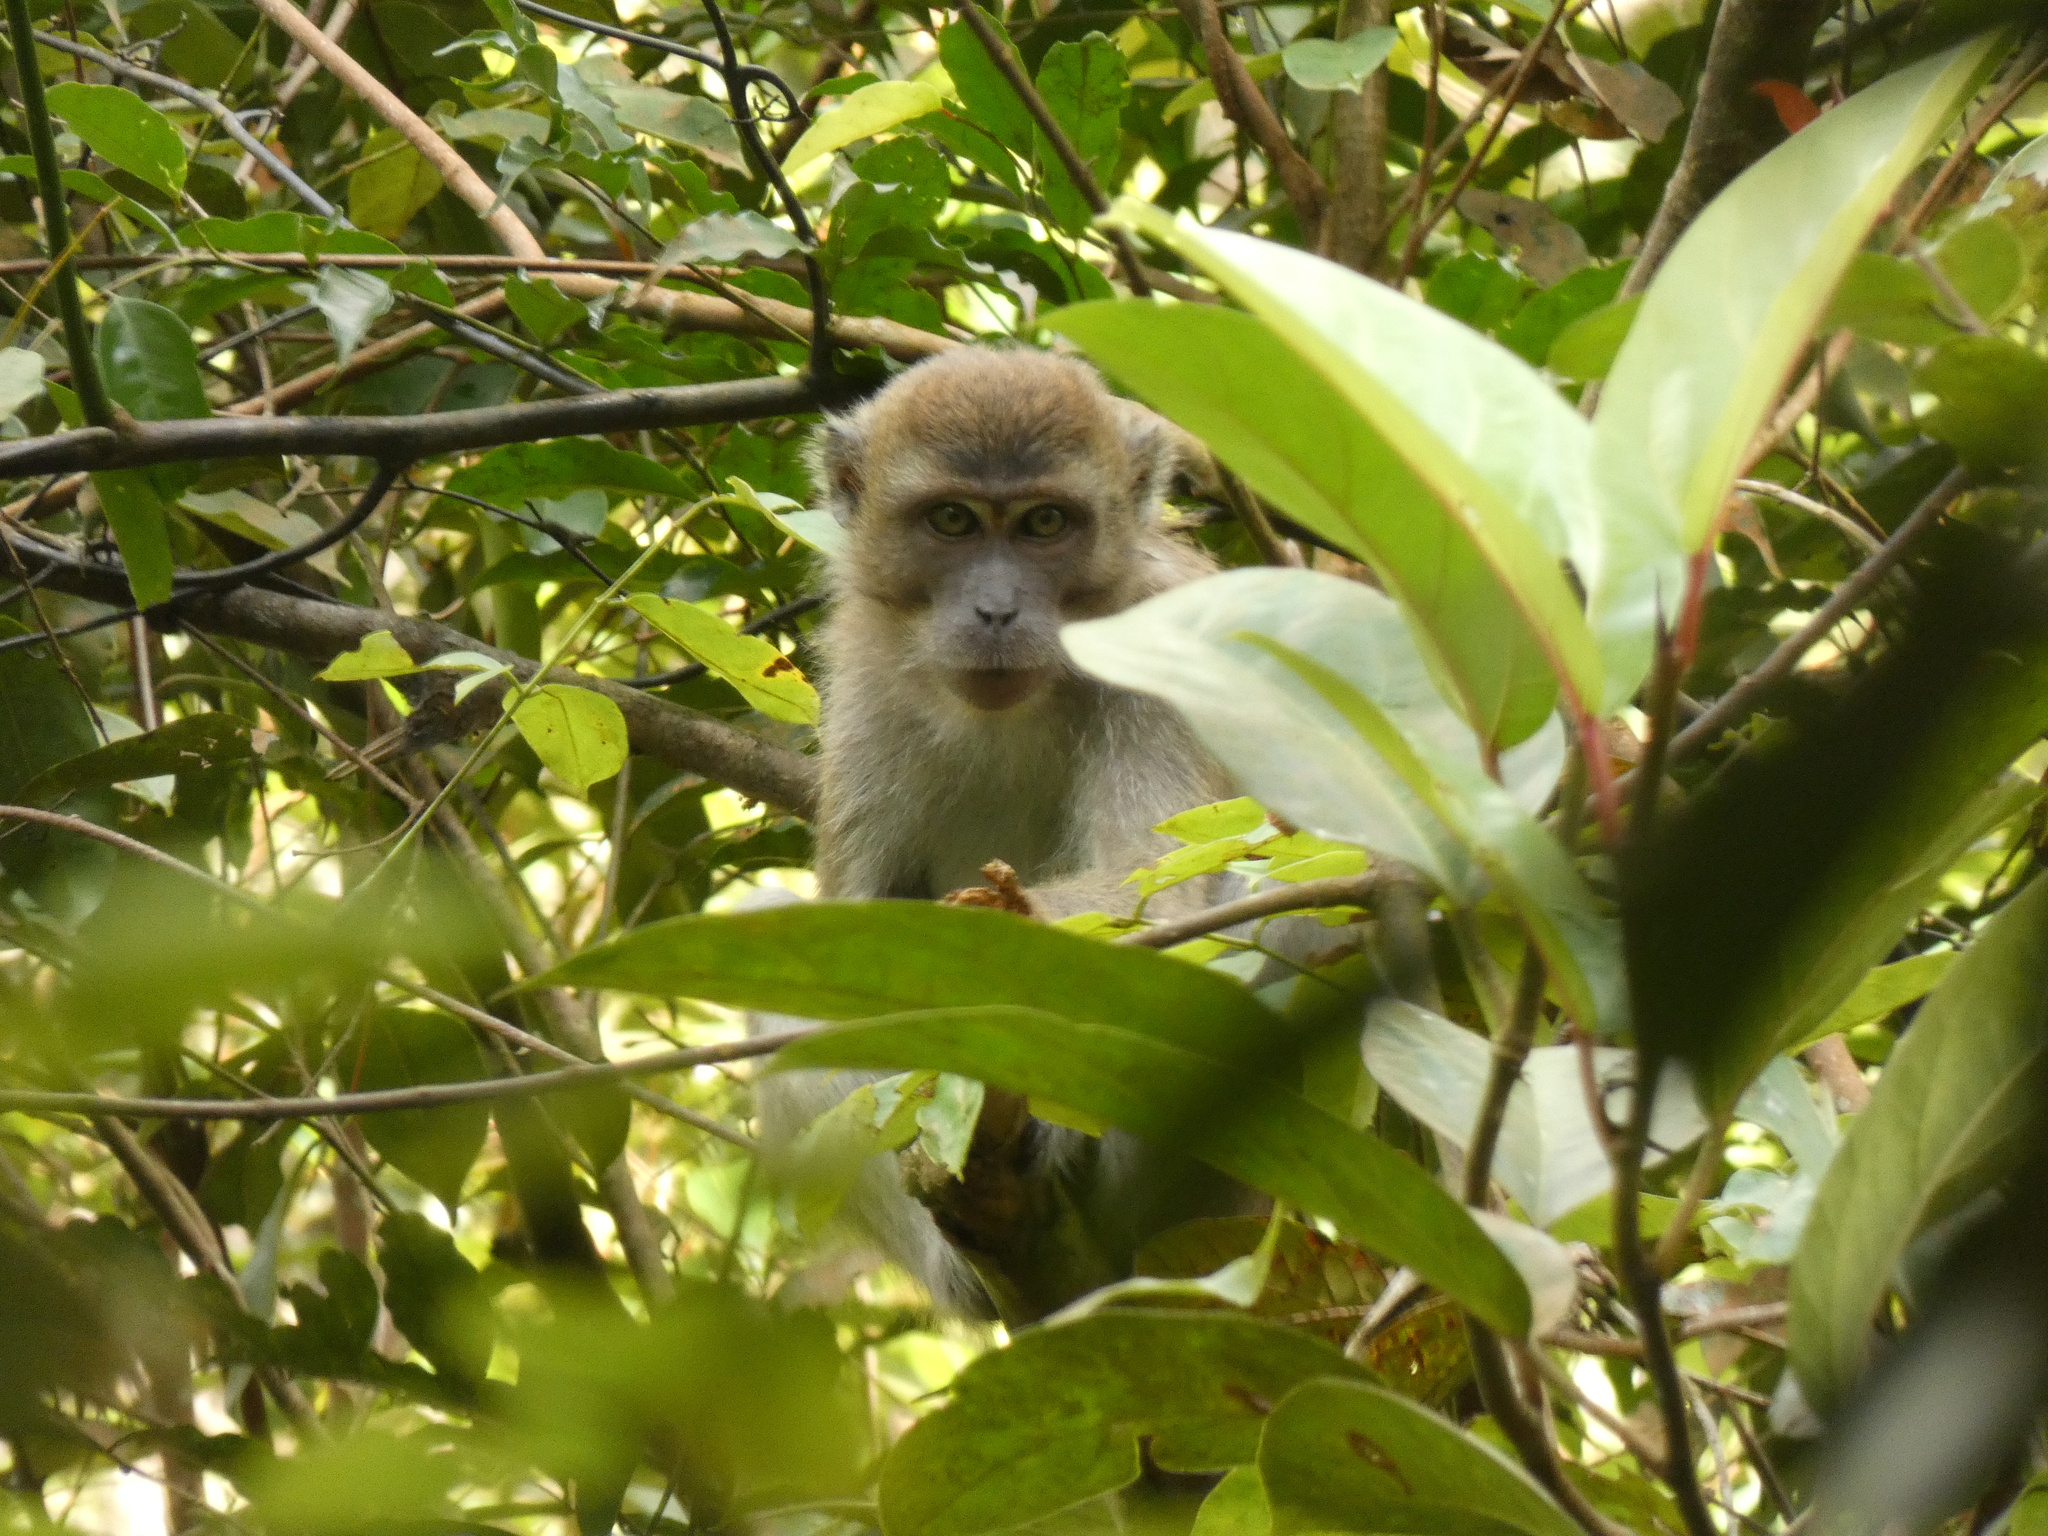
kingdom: Animalia
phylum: Chordata
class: Mammalia
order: Primates
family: Cercopithecidae
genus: Macaca
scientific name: Macaca fascicularis
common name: Crab-eating macaque
